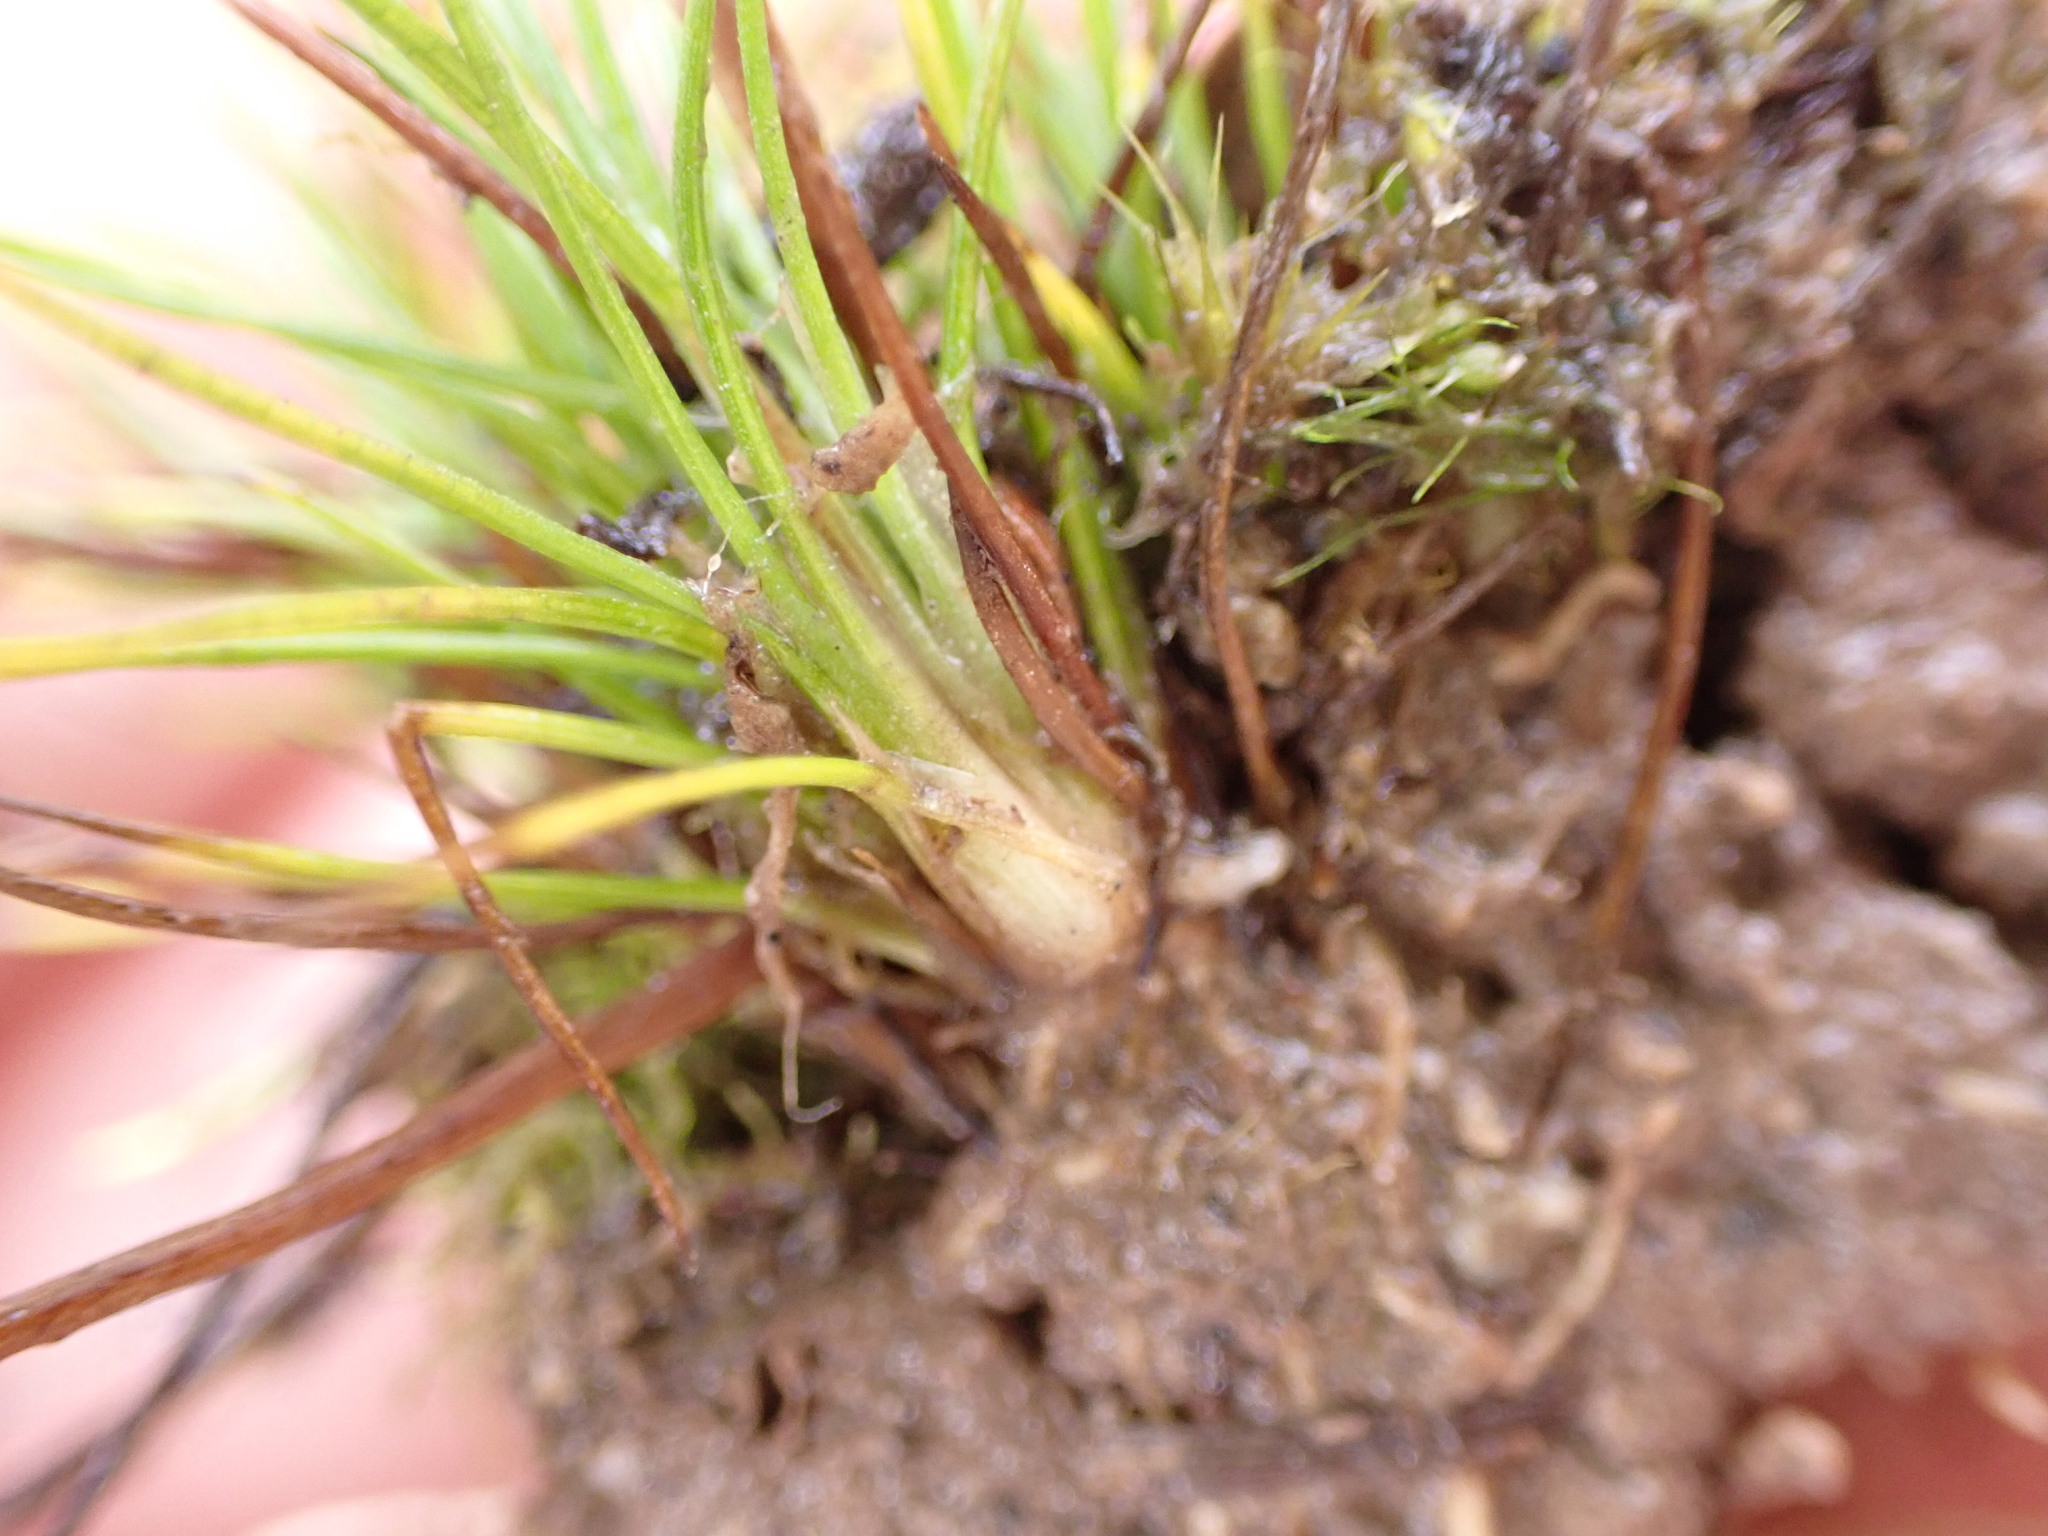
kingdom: Plantae
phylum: Tracheophyta
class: Liliopsida
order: Poales
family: Juncaceae
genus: Juncus
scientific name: Juncus bulbosus
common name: Bulbous rush
